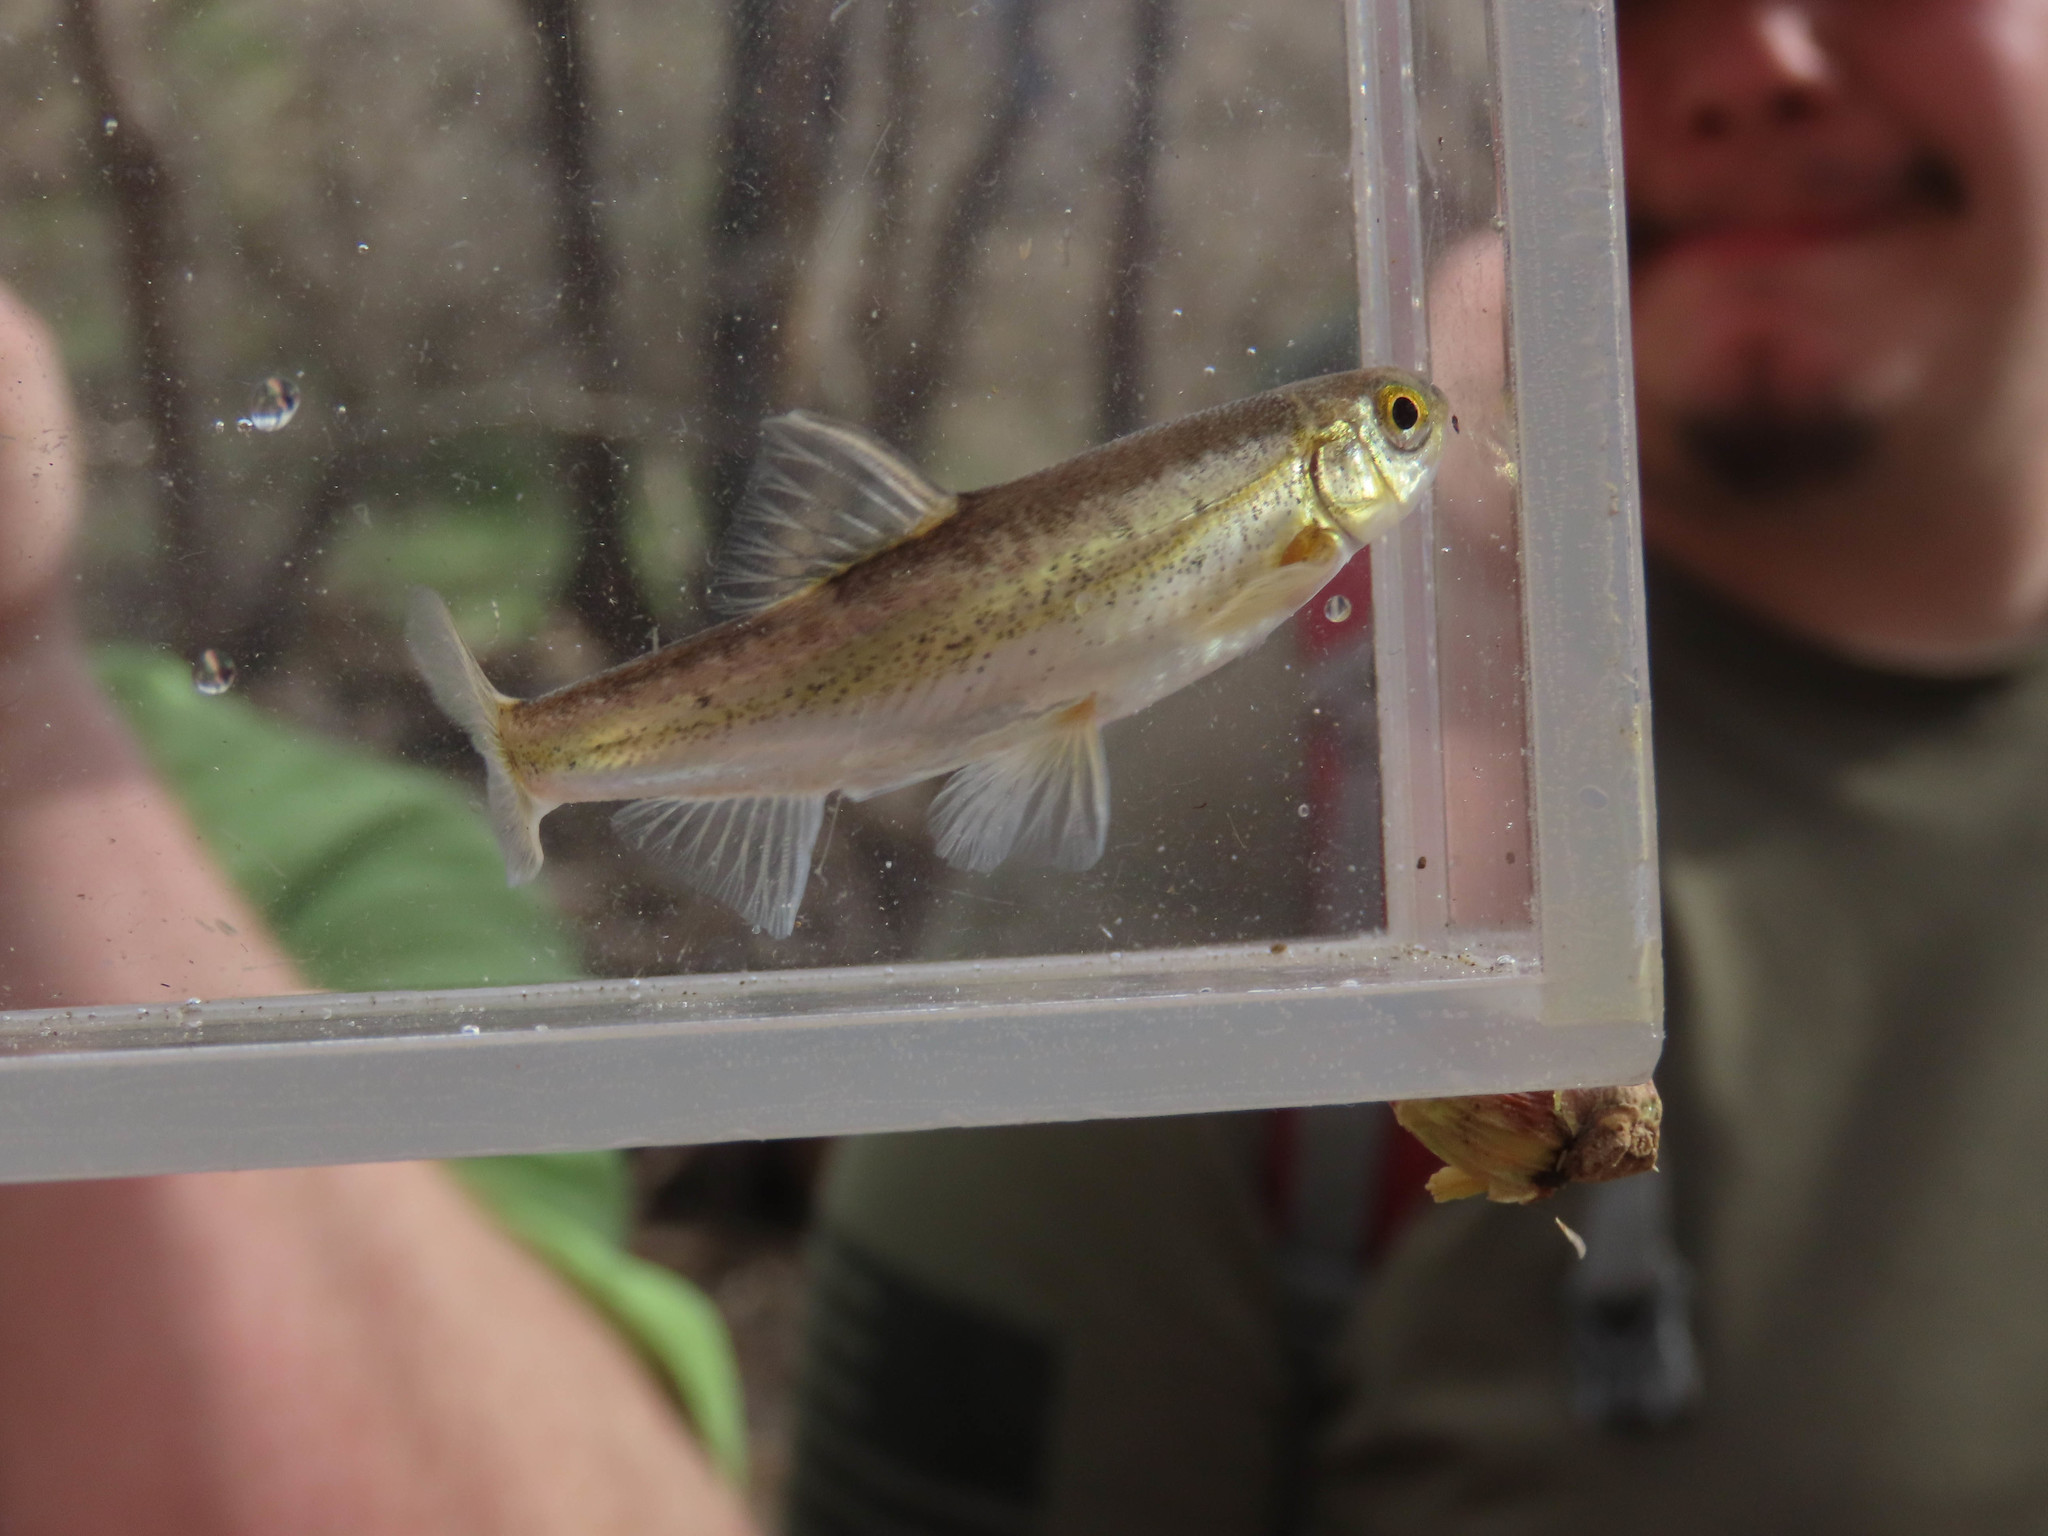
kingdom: Animalia
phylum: Chordata
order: Cypriniformes
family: Cyprinidae
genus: Meda
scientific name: Meda fulgida
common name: Spikedace
